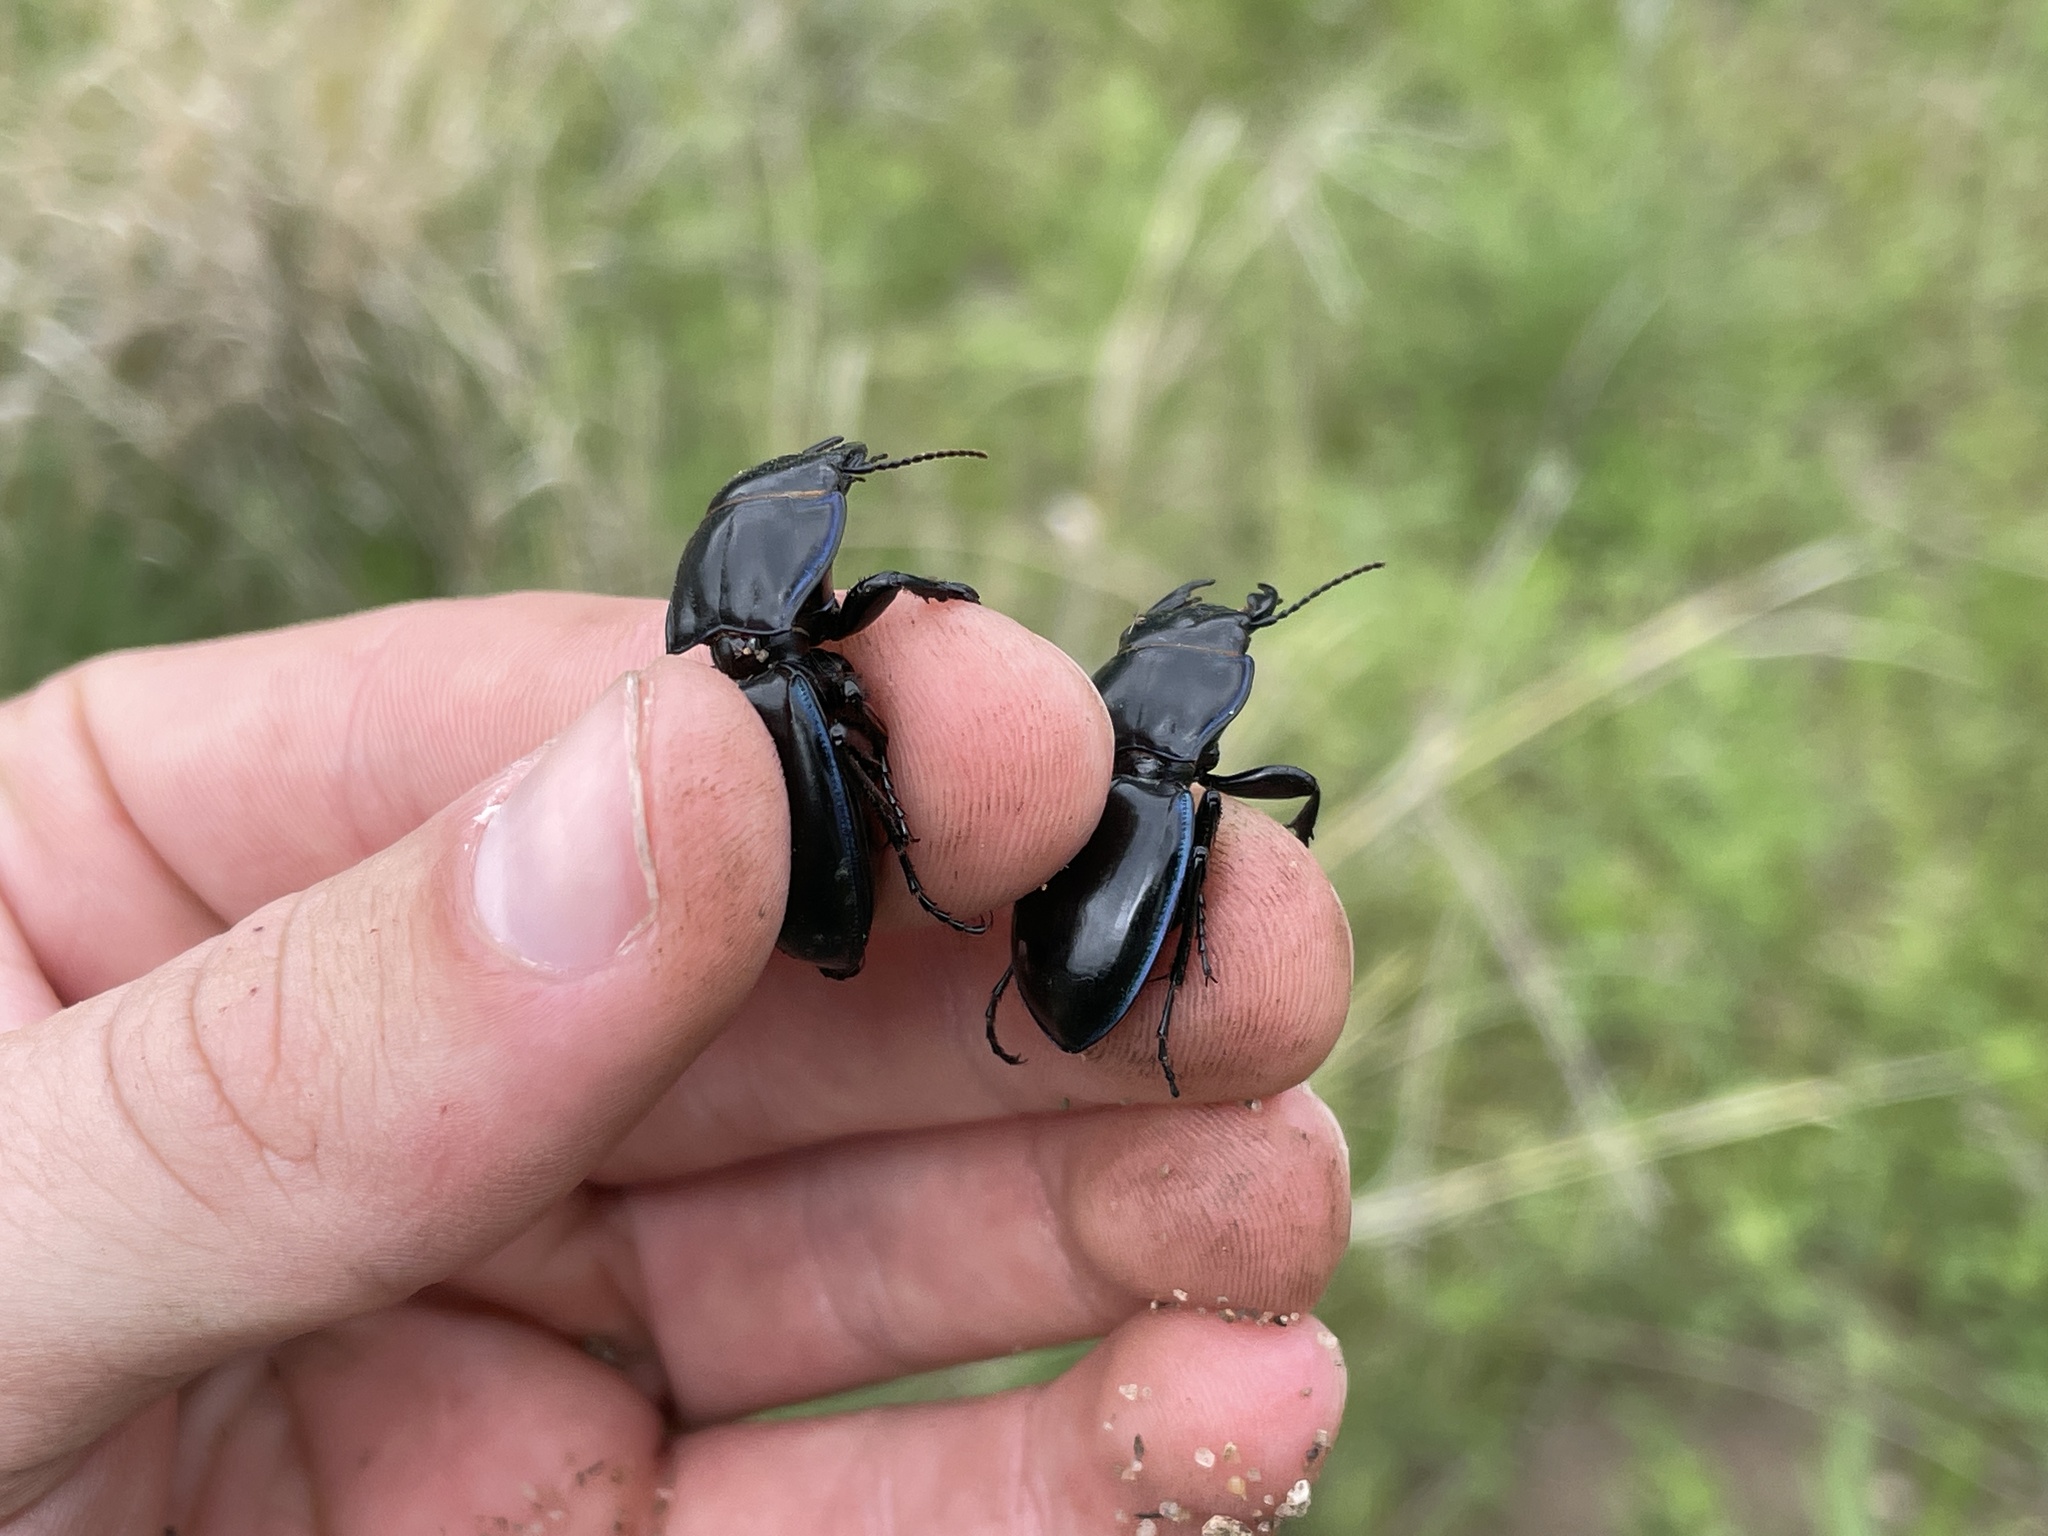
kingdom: Animalia
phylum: Arthropoda
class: Insecta
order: Coleoptera
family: Carabidae
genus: Pasimachus
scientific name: Pasimachus elongatus
